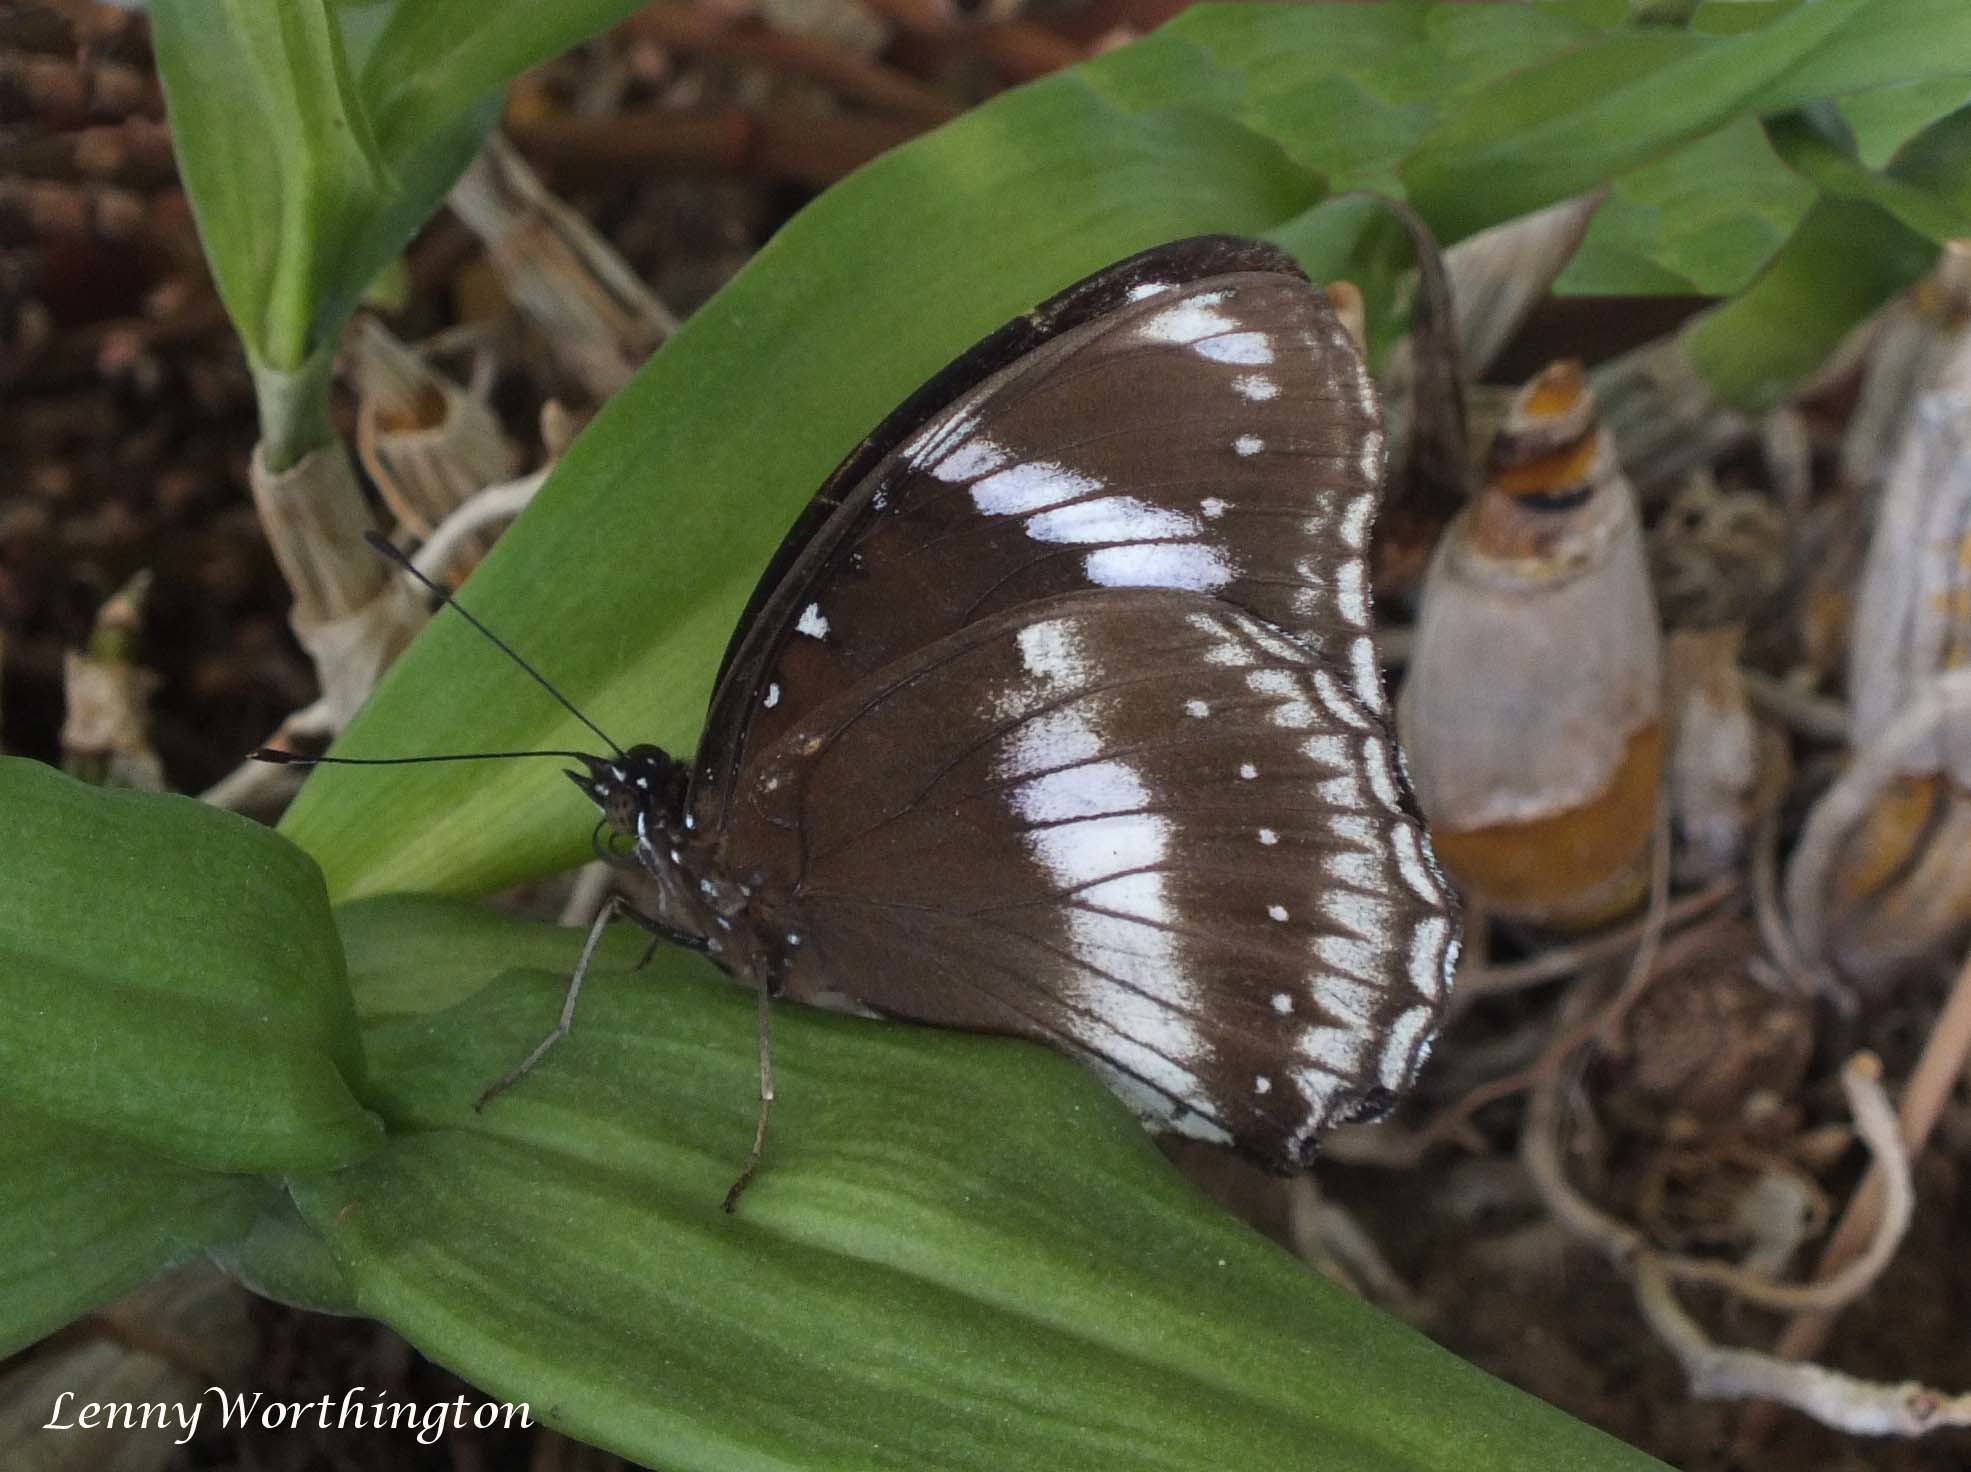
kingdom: Animalia
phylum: Arthropoda
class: Insecta
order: Lepidoptera
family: Nymphalidae
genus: Hypolimnas
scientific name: Hypolimnas bolina
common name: Great eggfly
